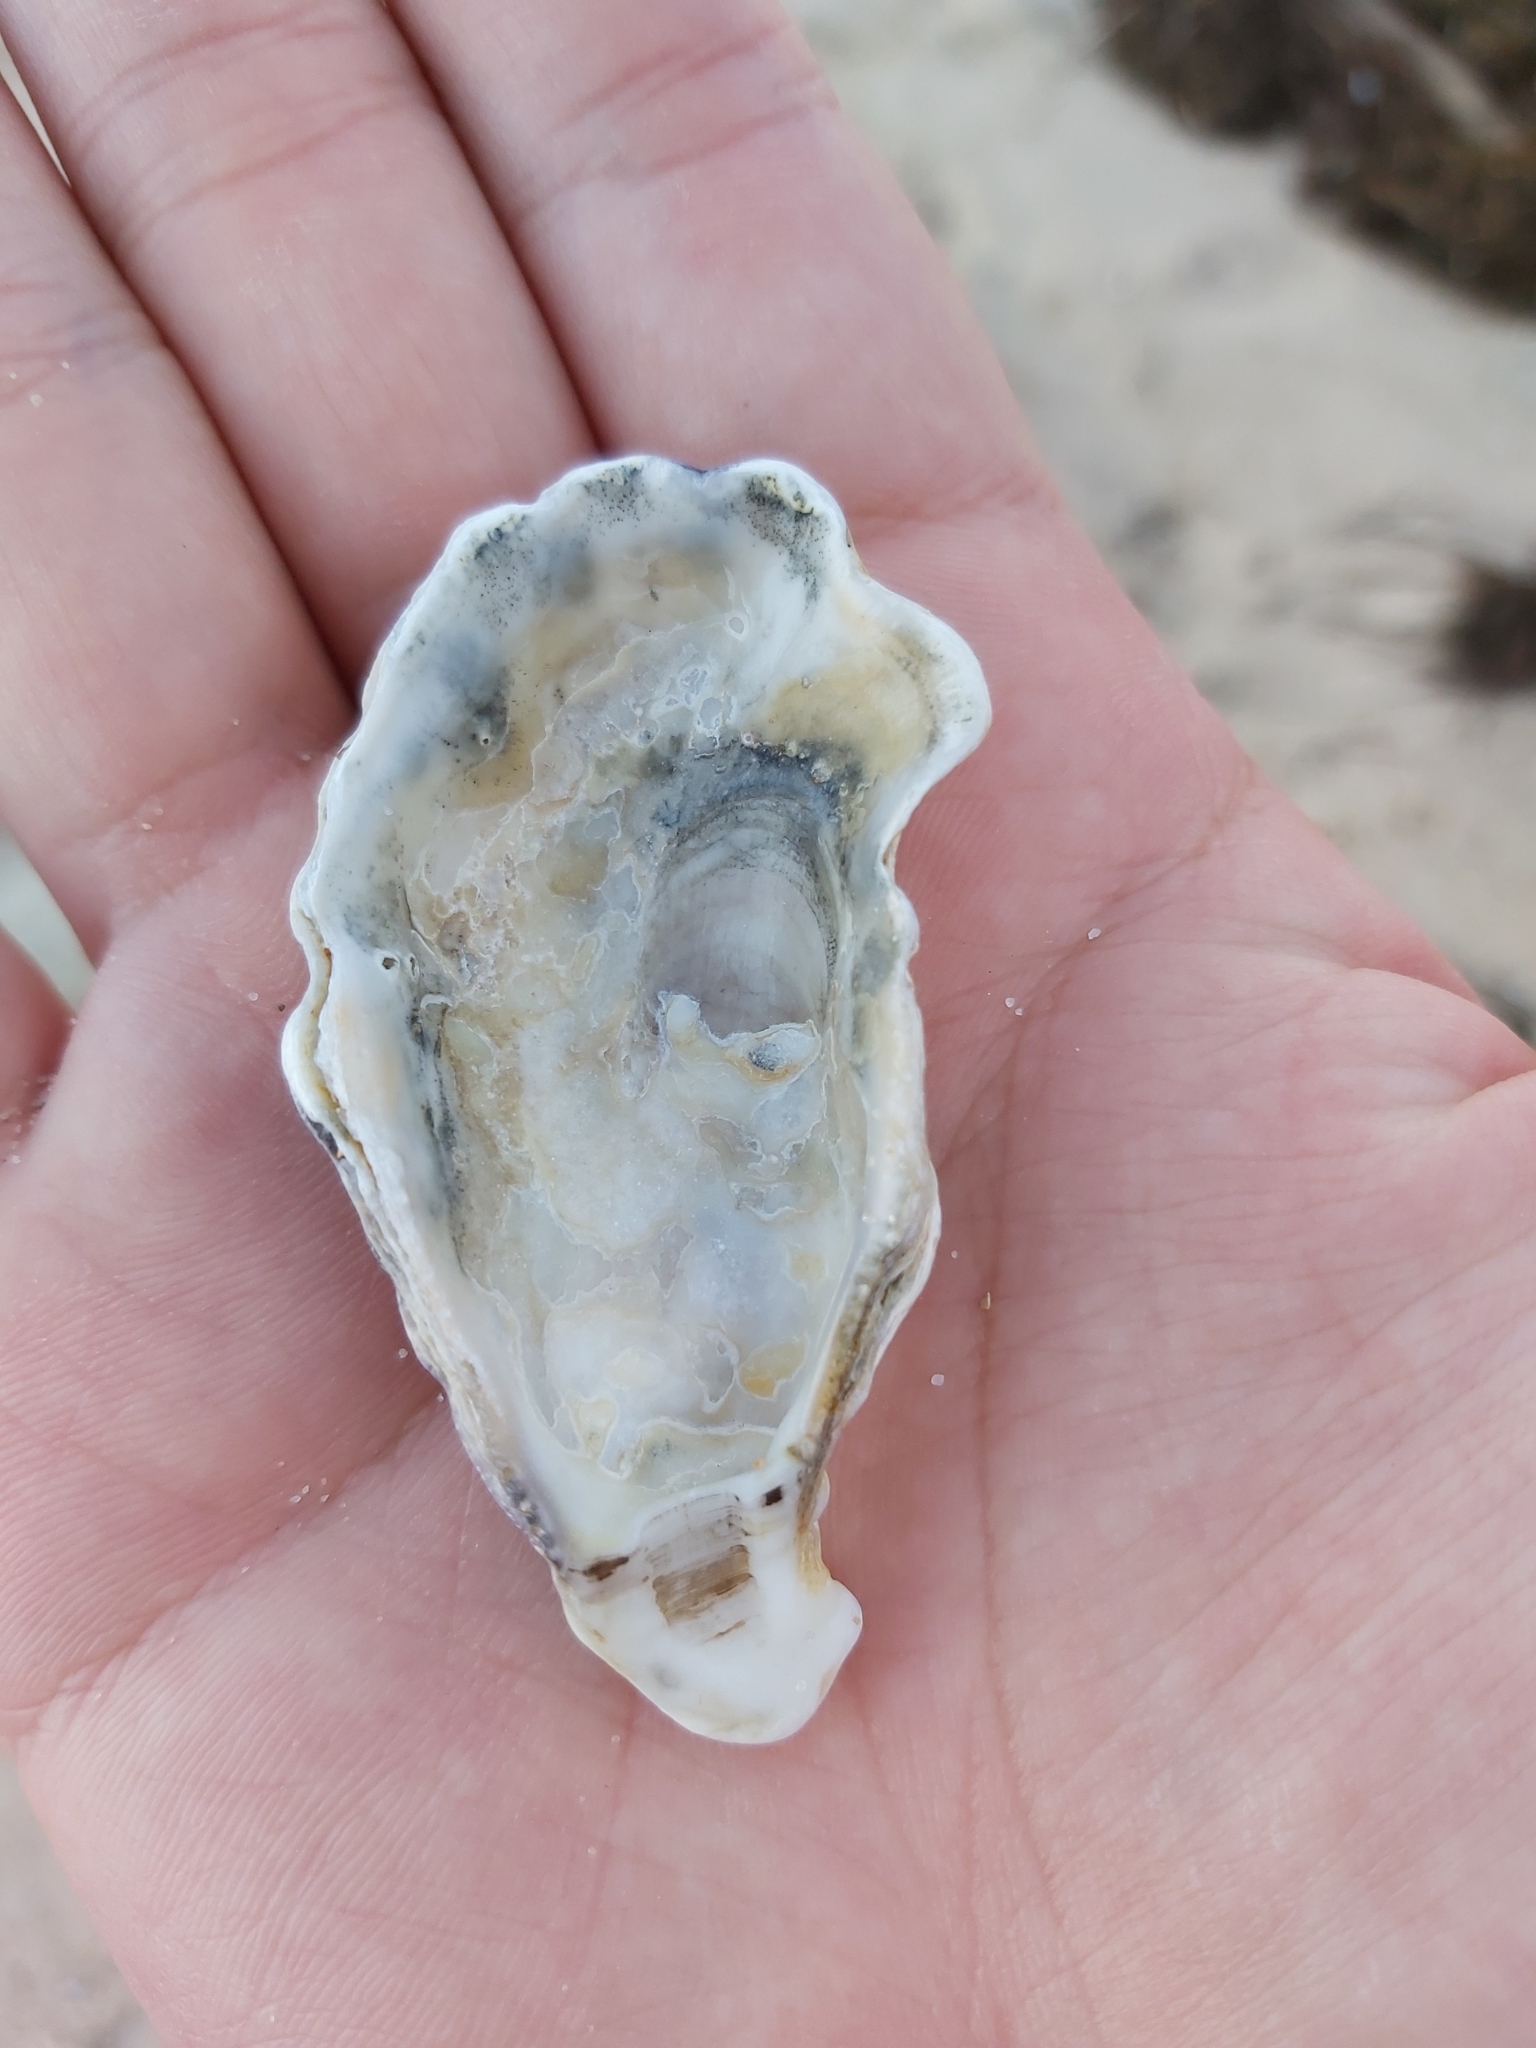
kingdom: Animalia
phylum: Mollusca
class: Bivalvia
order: Ostreida
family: Ostreidae
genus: Saccostrea
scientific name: Saccostrea glomerata
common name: Sydney cupped oyster
